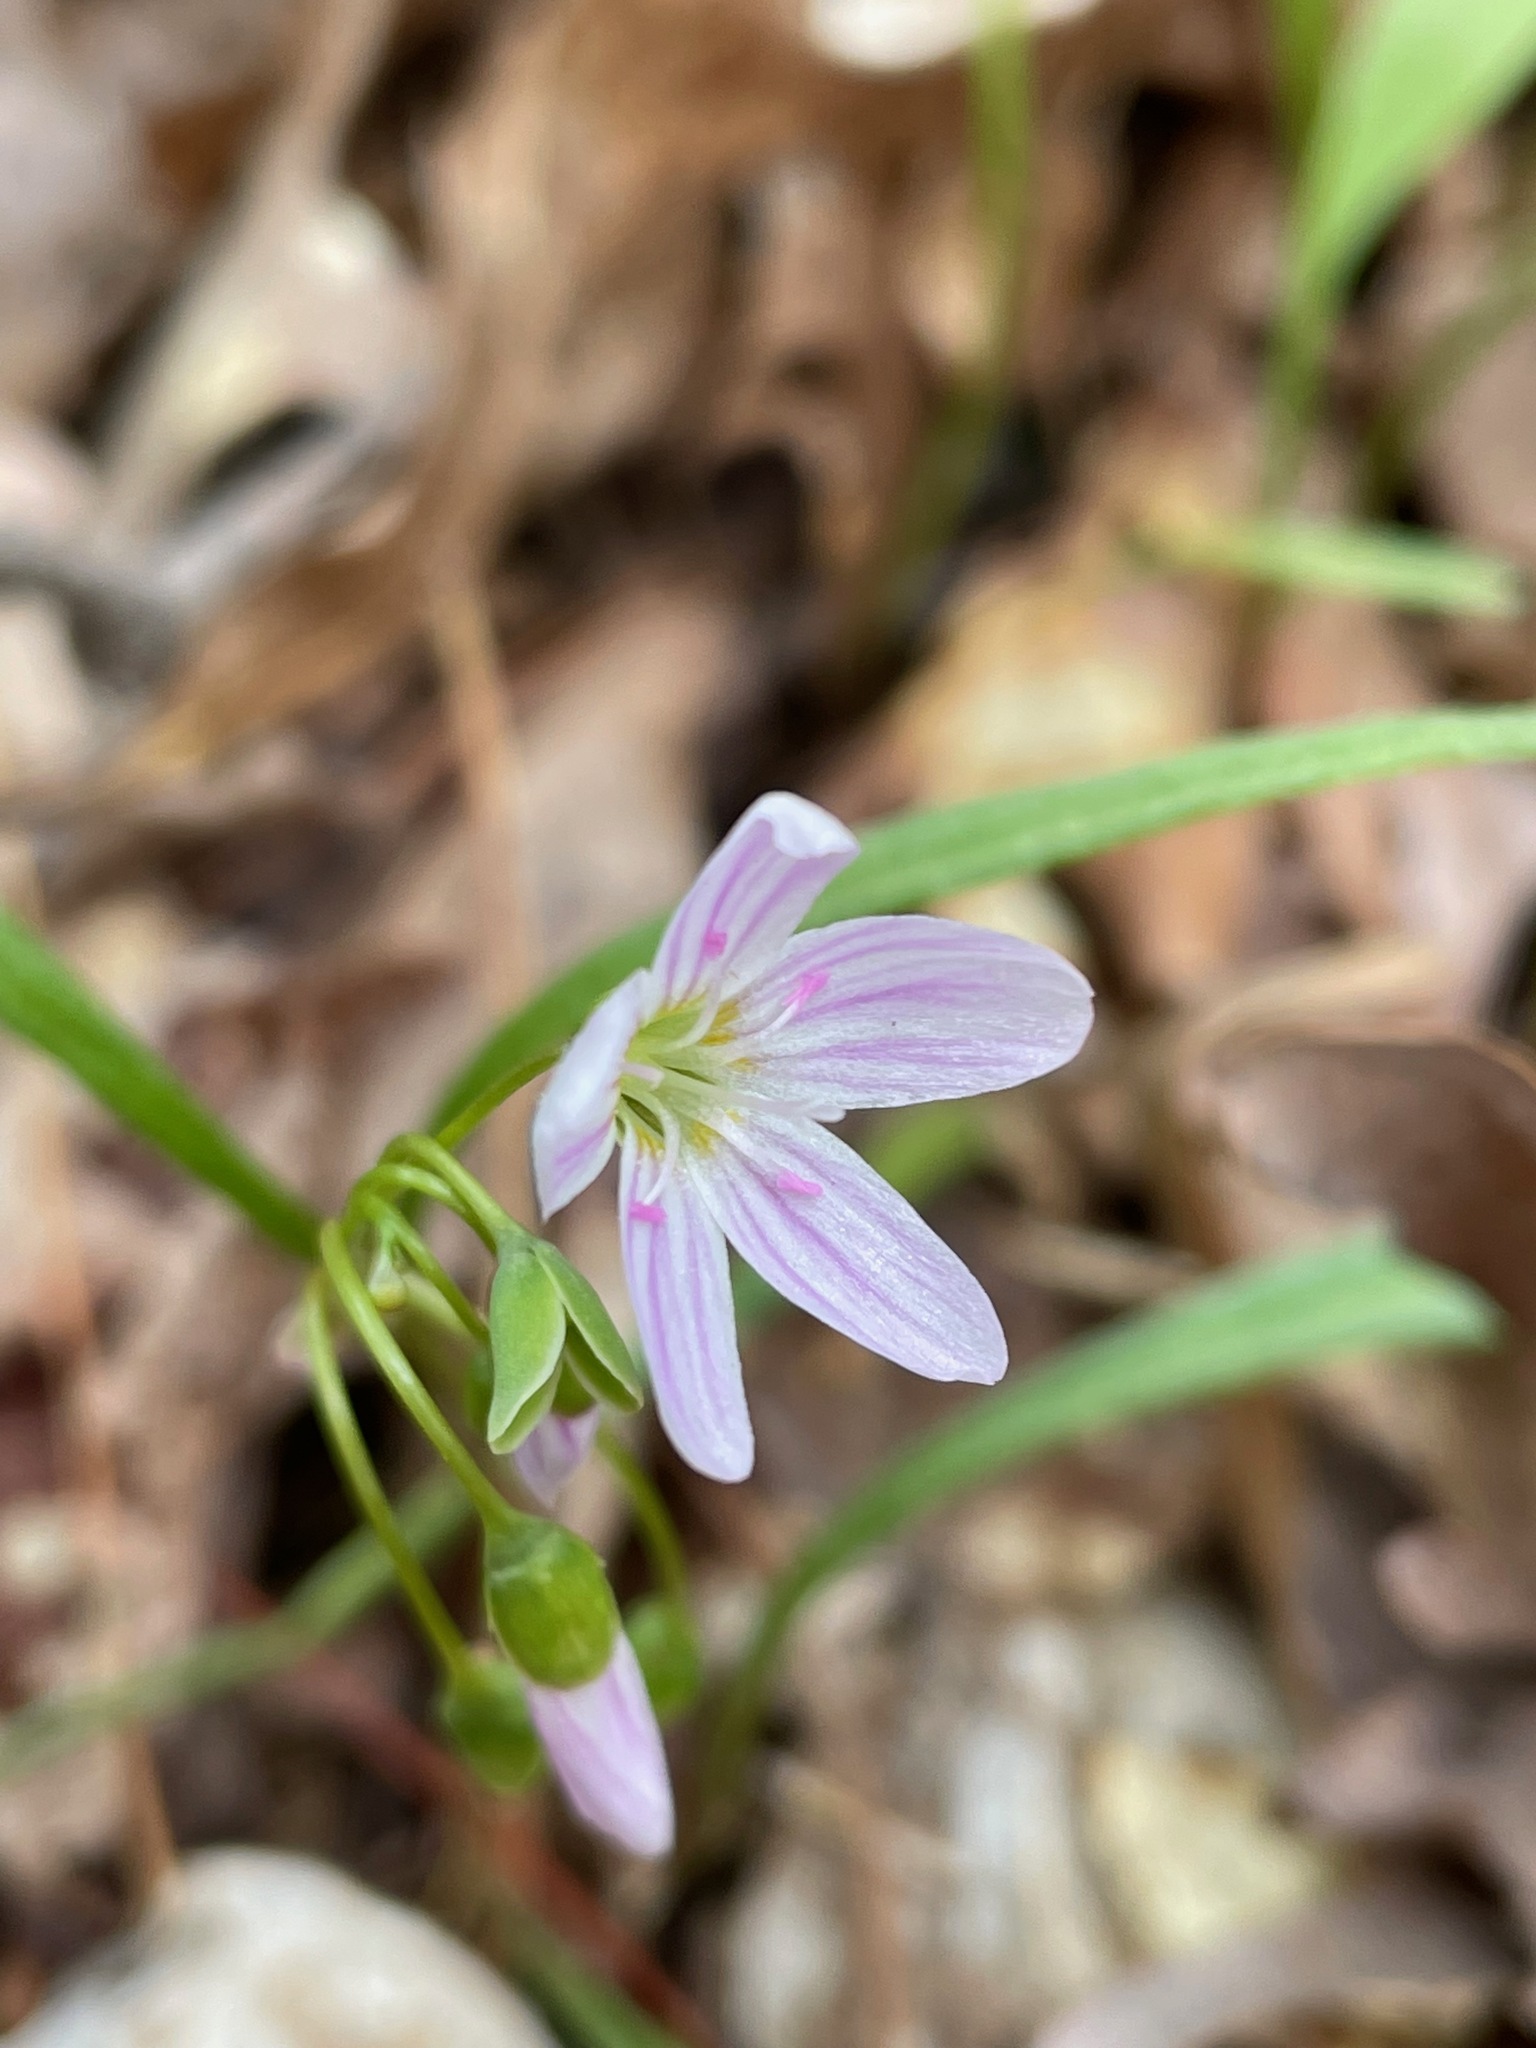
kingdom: Plantae
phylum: Tracheophyta
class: Magnoliopsida
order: Caryophyllales
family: Montiaceae
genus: Claytonia
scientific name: Claytonia virginica
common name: Virginia springbeauty
